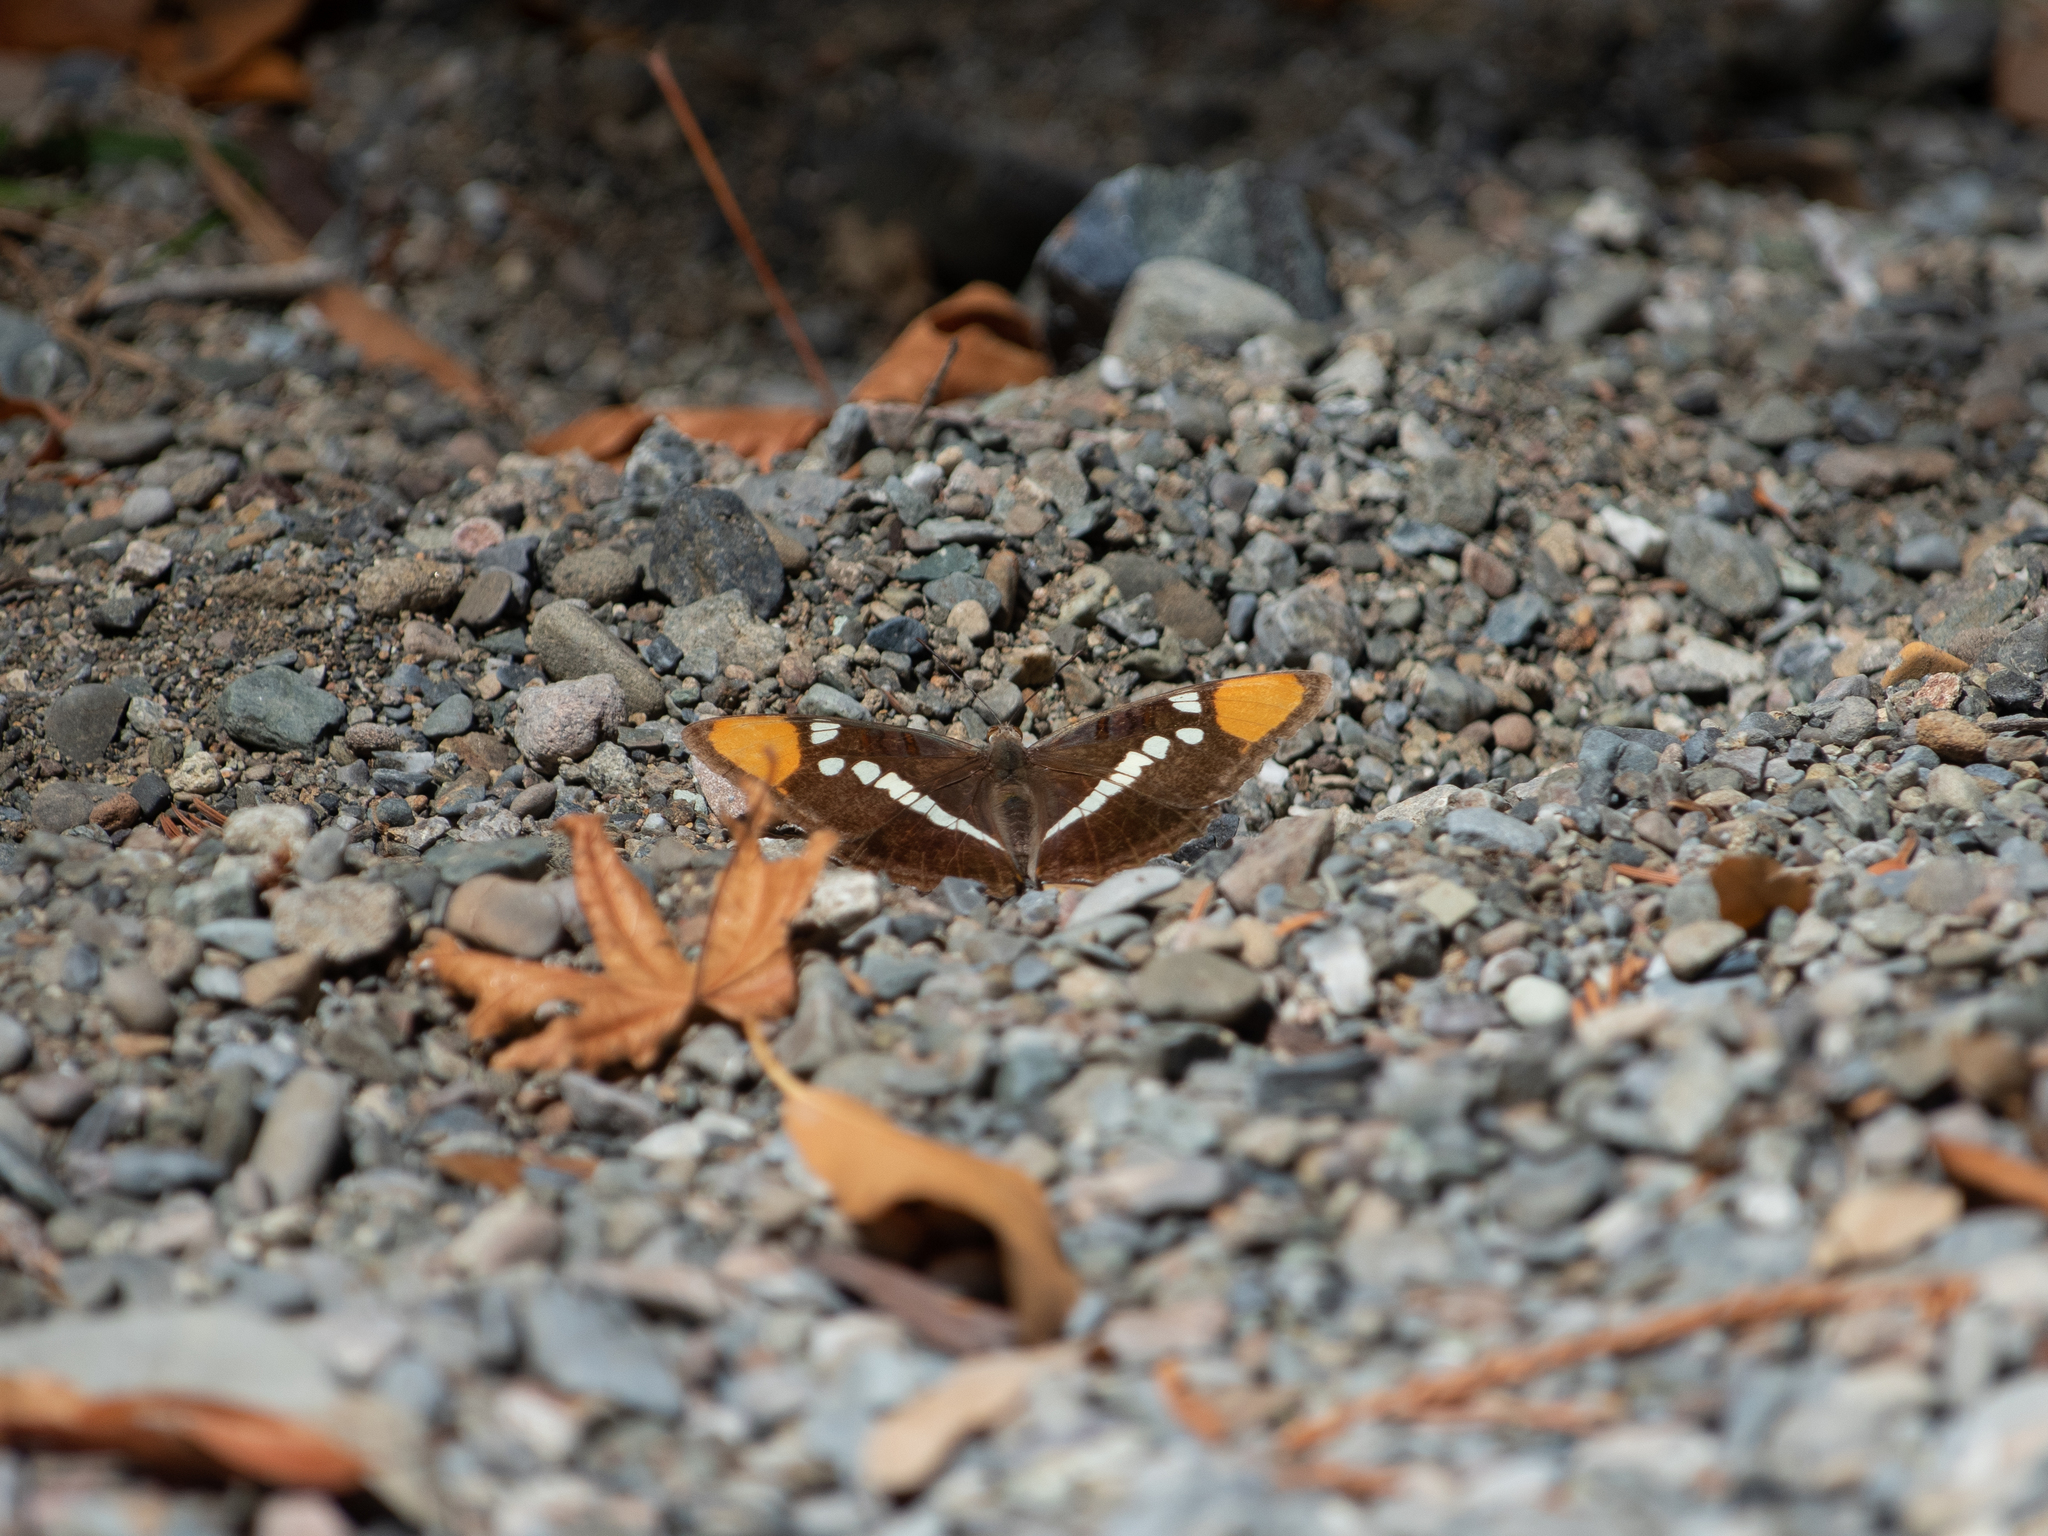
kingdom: Animalia
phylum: Arthropoda
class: Insecta
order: Lepidoptera
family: Nymphalidae
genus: Limenitis
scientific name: Limenitis bredowii
